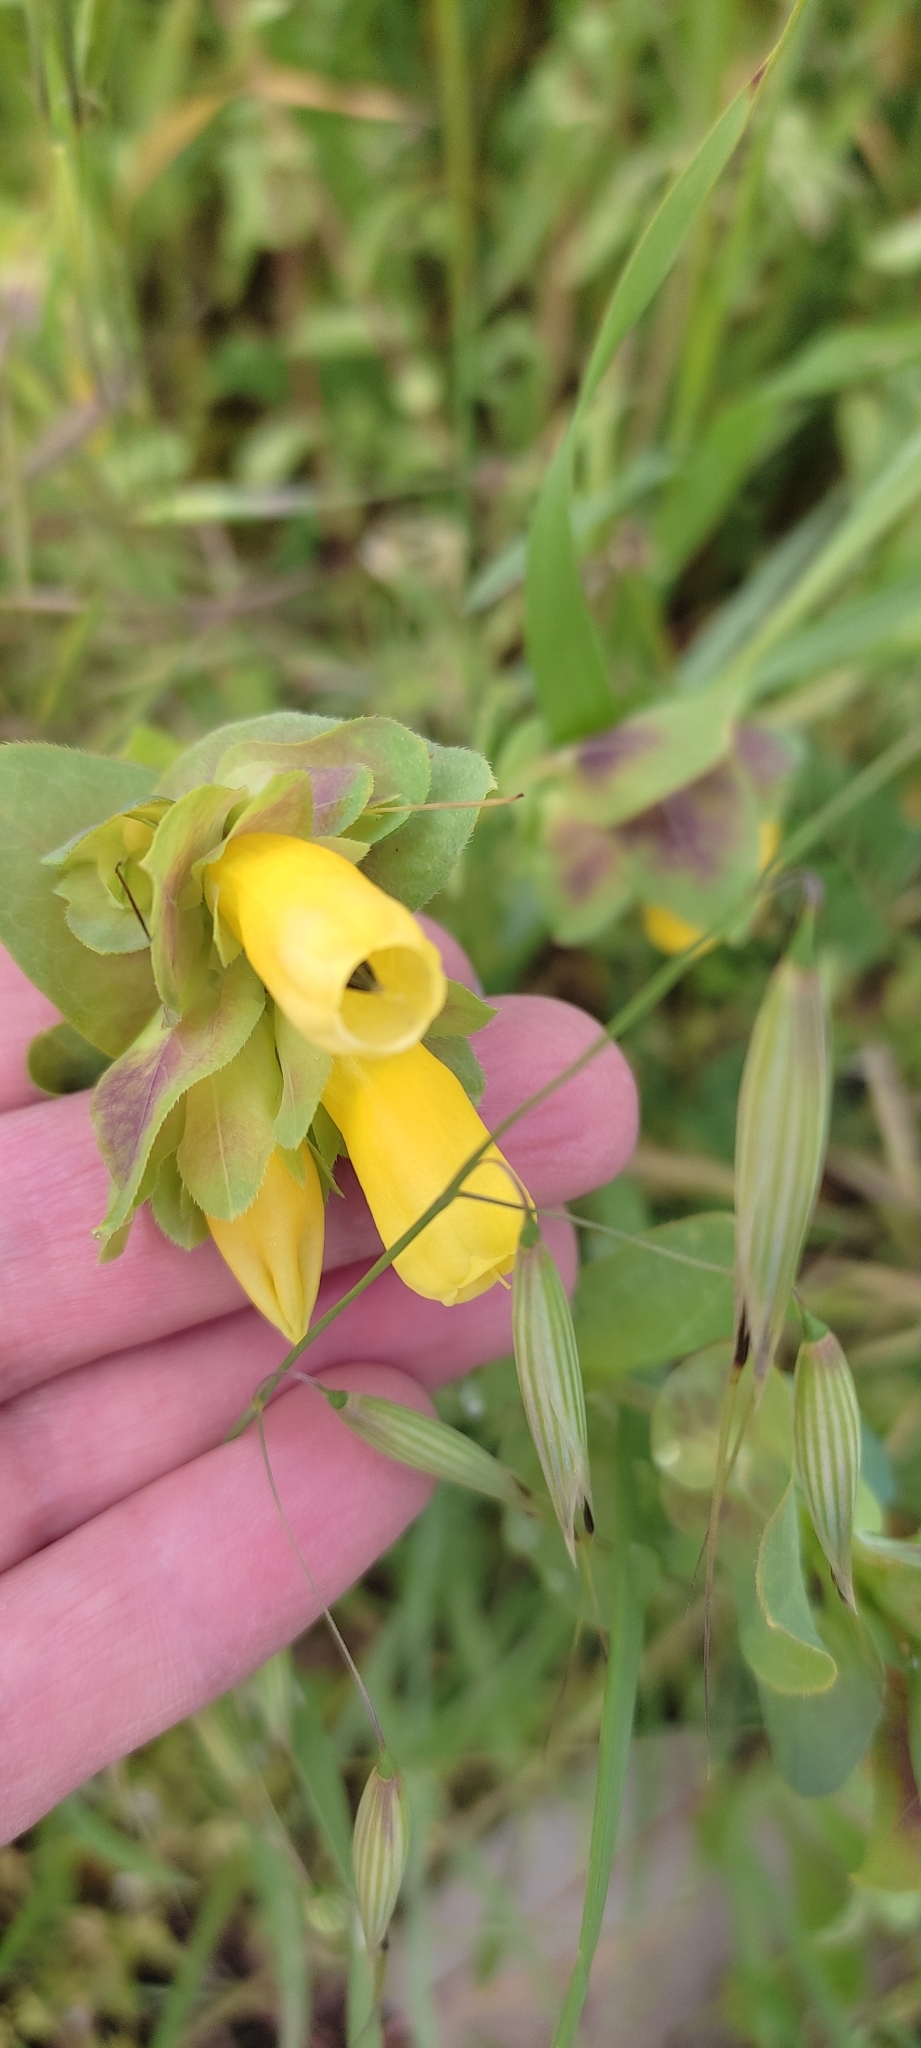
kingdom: Plantae
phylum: Tracheophyta
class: Magnoliopsida
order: Boraginales
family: Boraginaceae
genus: Cerinthe
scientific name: Cerinthe major
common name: Greater honeywort
